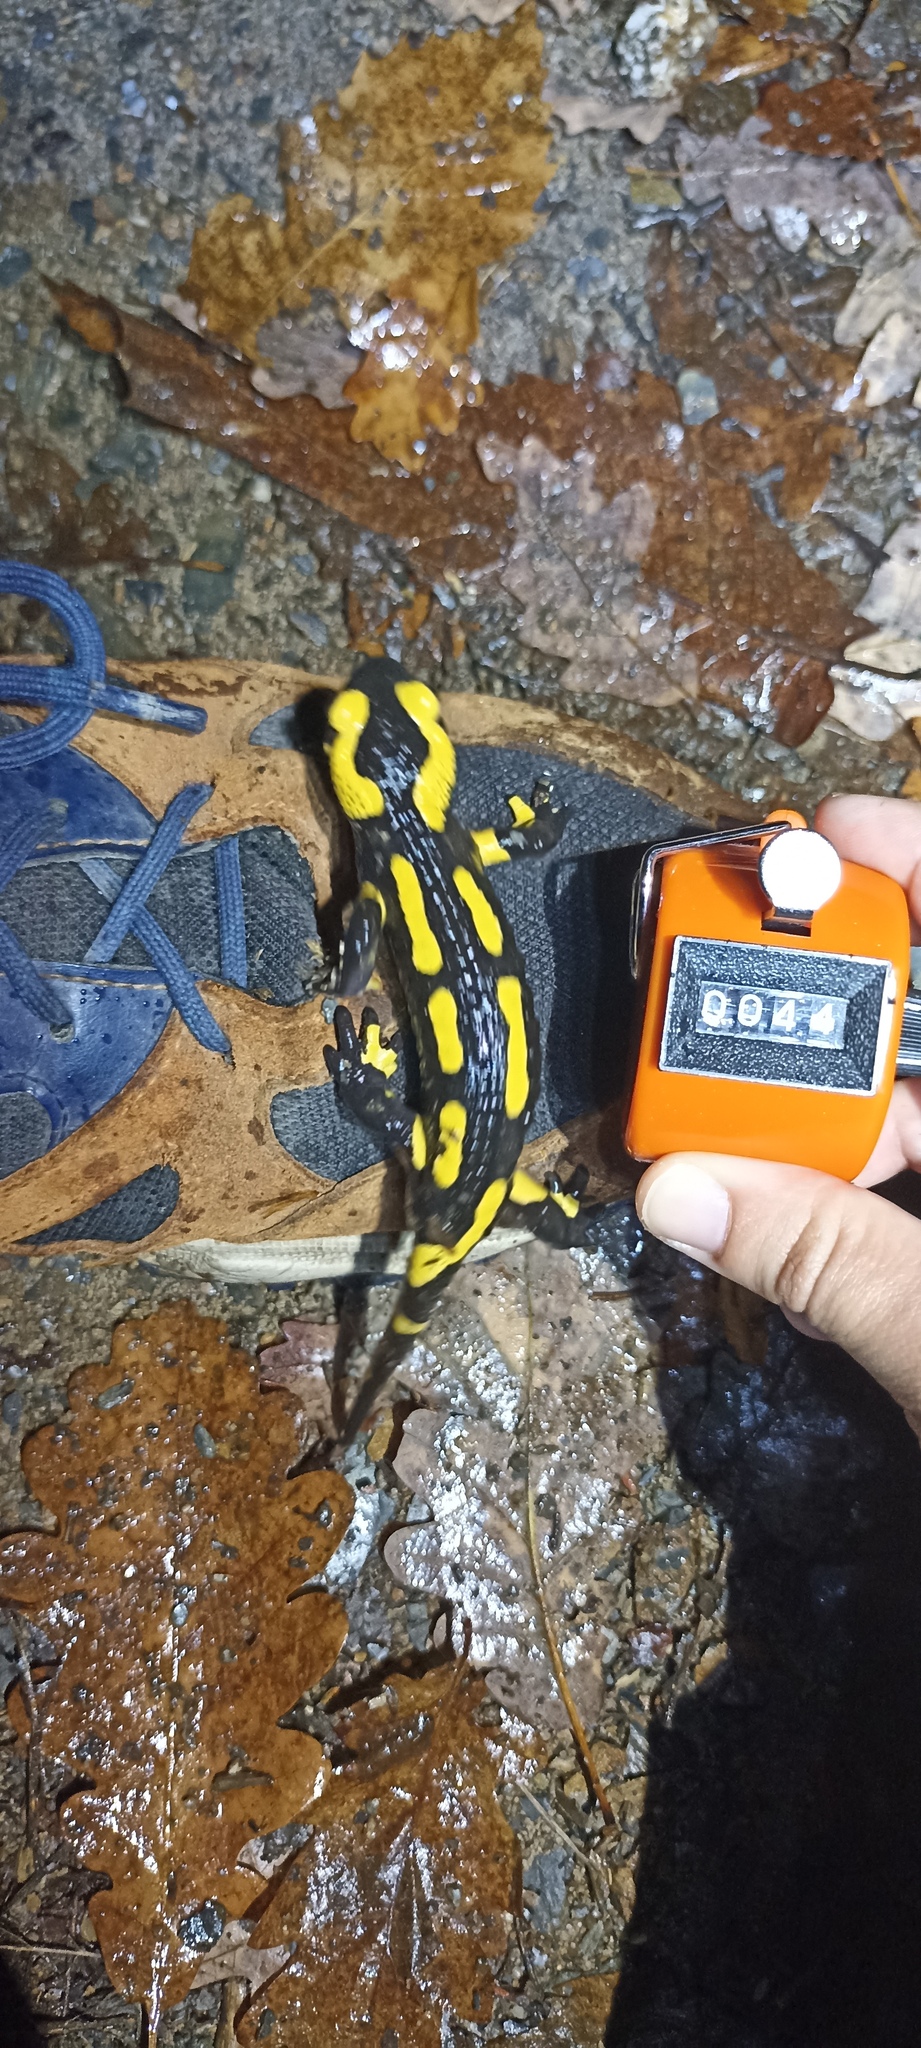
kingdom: Animalia
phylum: Chordata
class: Amphibia
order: Caudata
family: Salamandridae
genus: Salamandra
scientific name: Salamandra salamandra
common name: Fire salamander
